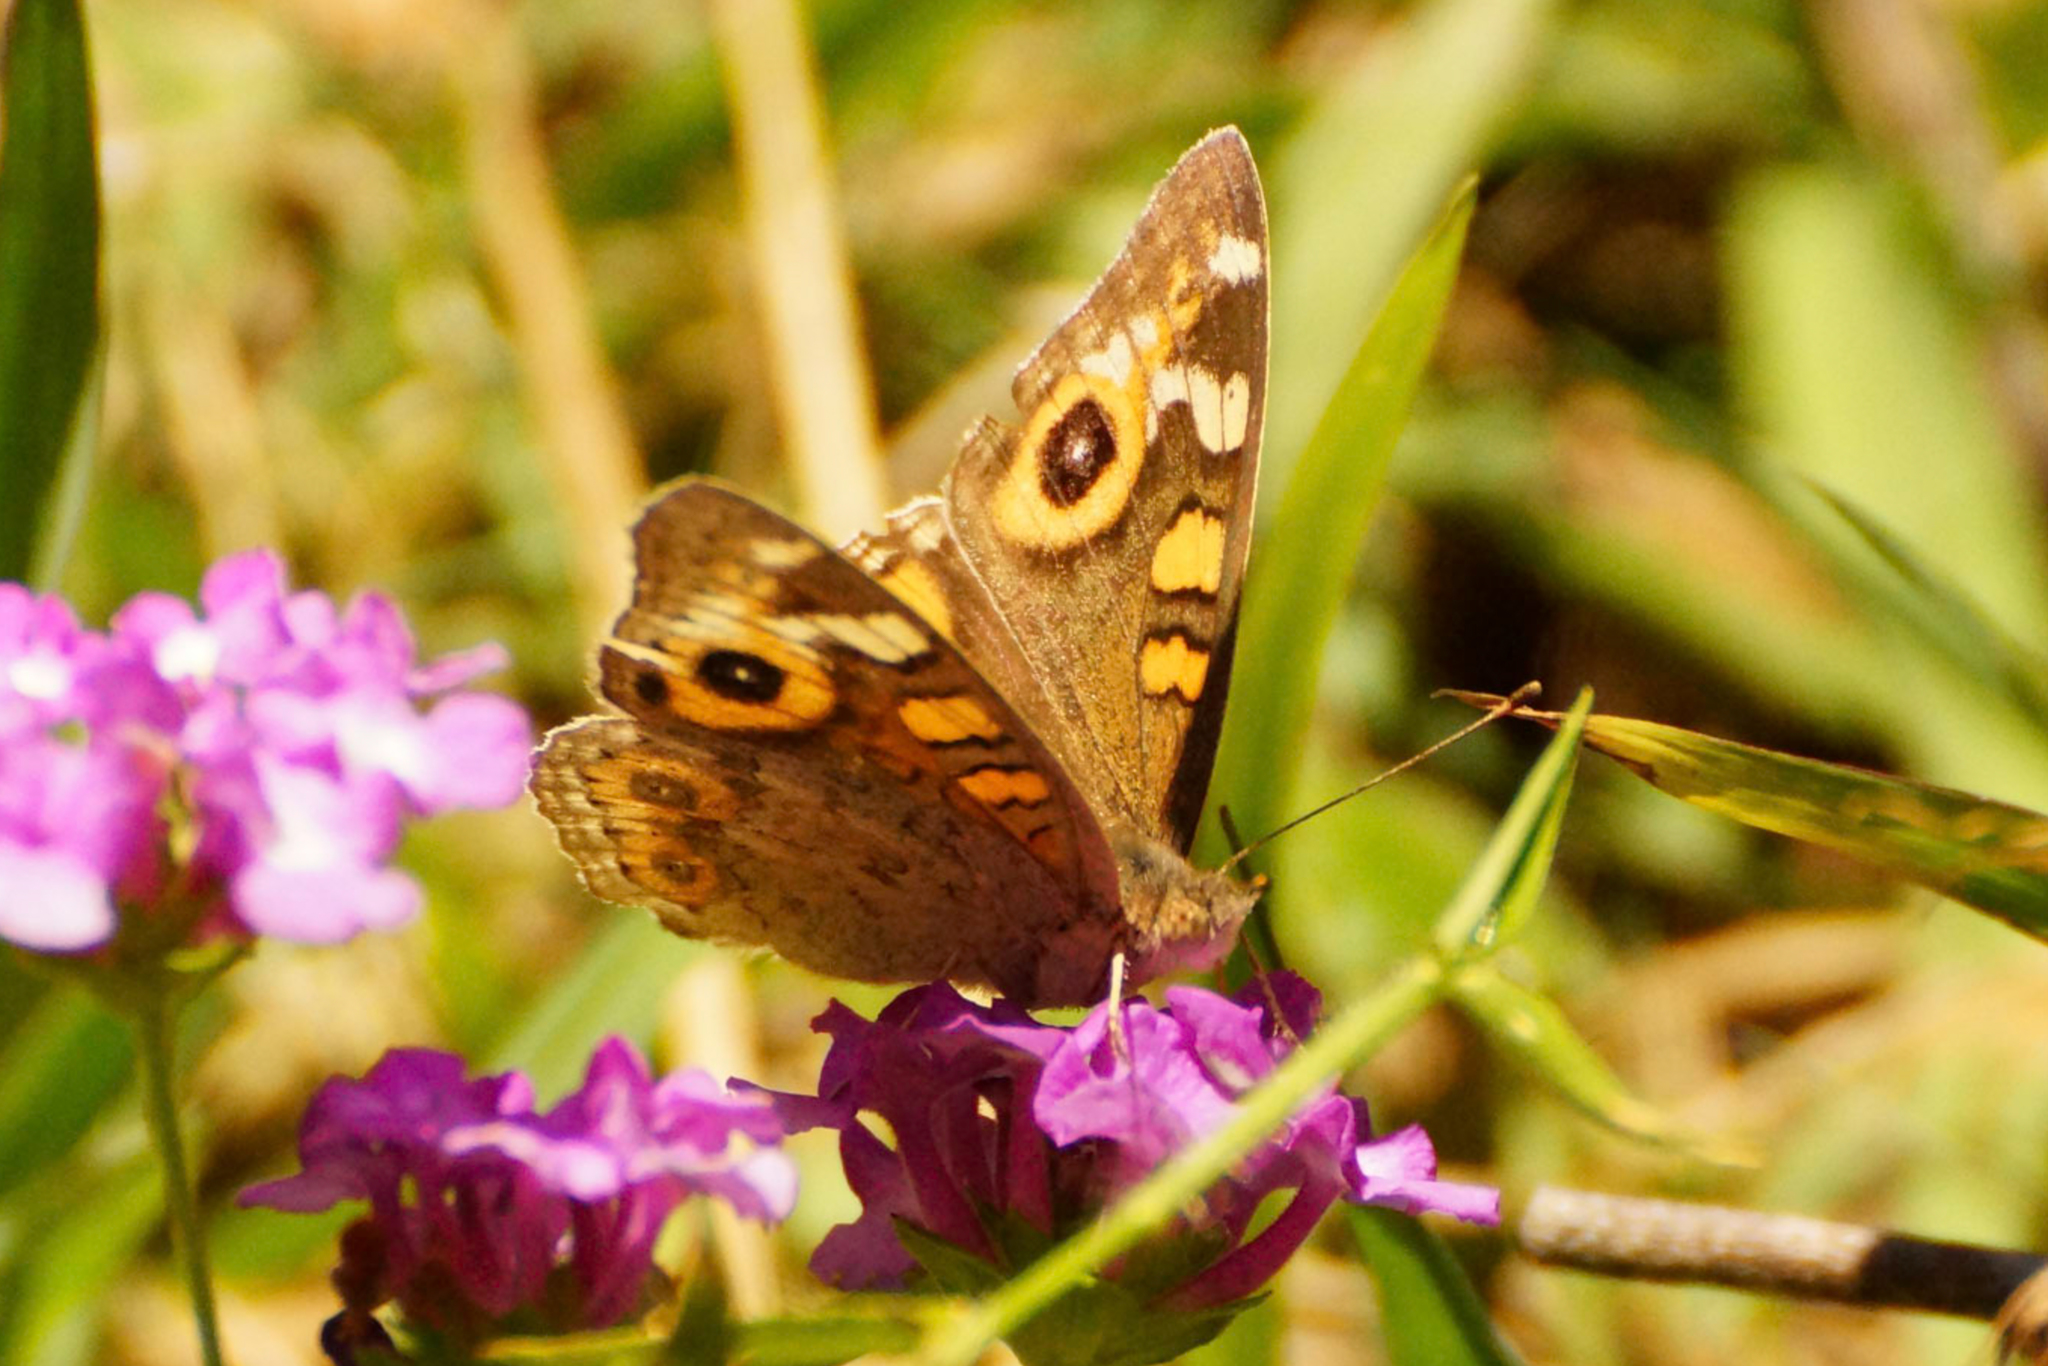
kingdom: Animalia
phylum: Arthropoda
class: Insecta
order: Lepidoptera
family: Nymphalidae
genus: Junonia
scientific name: Junonia villida
